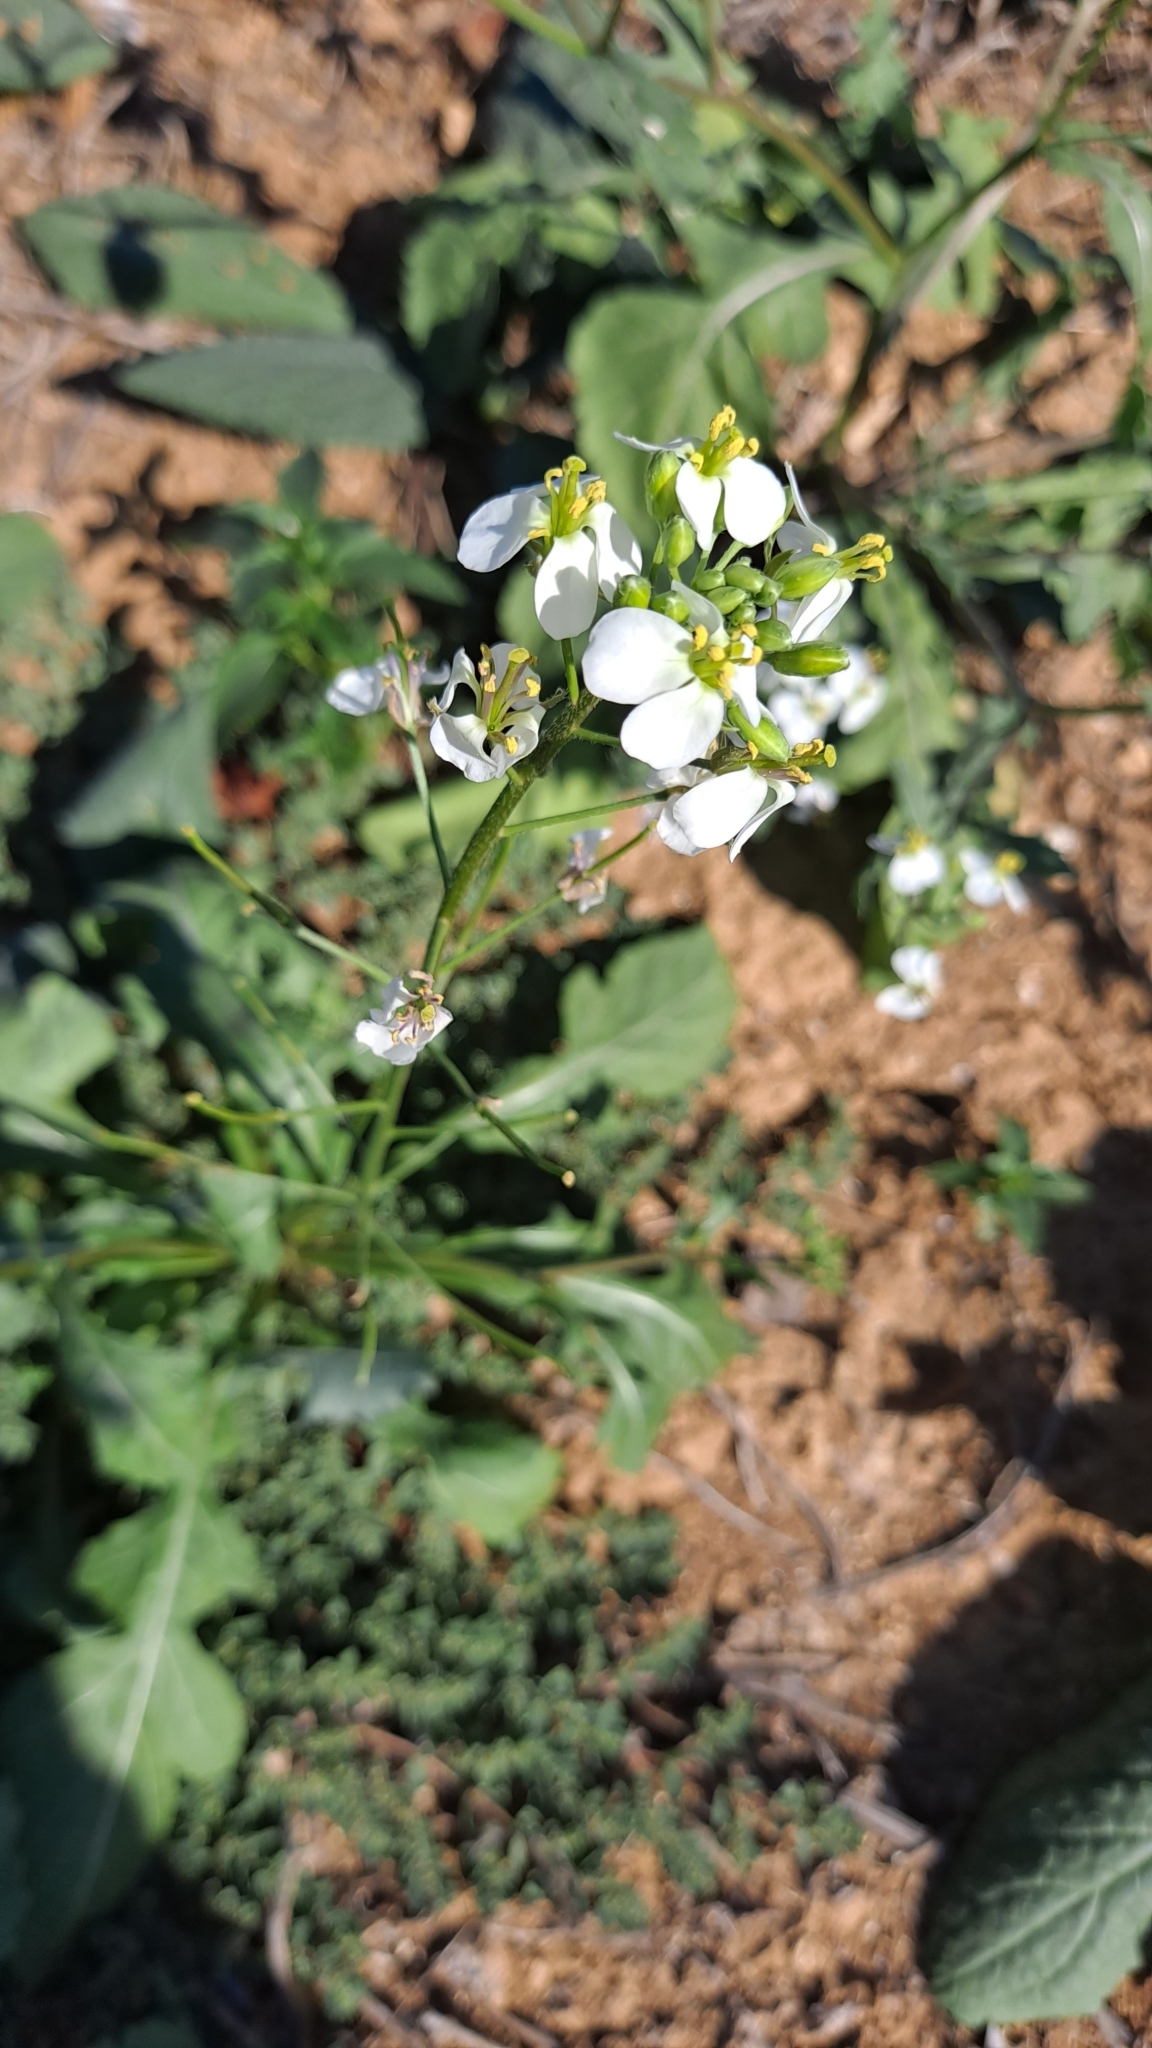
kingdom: Plantae
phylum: Tracheophyta
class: Magnoliopsida
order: Brassicales
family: Brassicaceae
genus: Diplotaxis
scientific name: Diplotaxis erucoides
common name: White rocket
